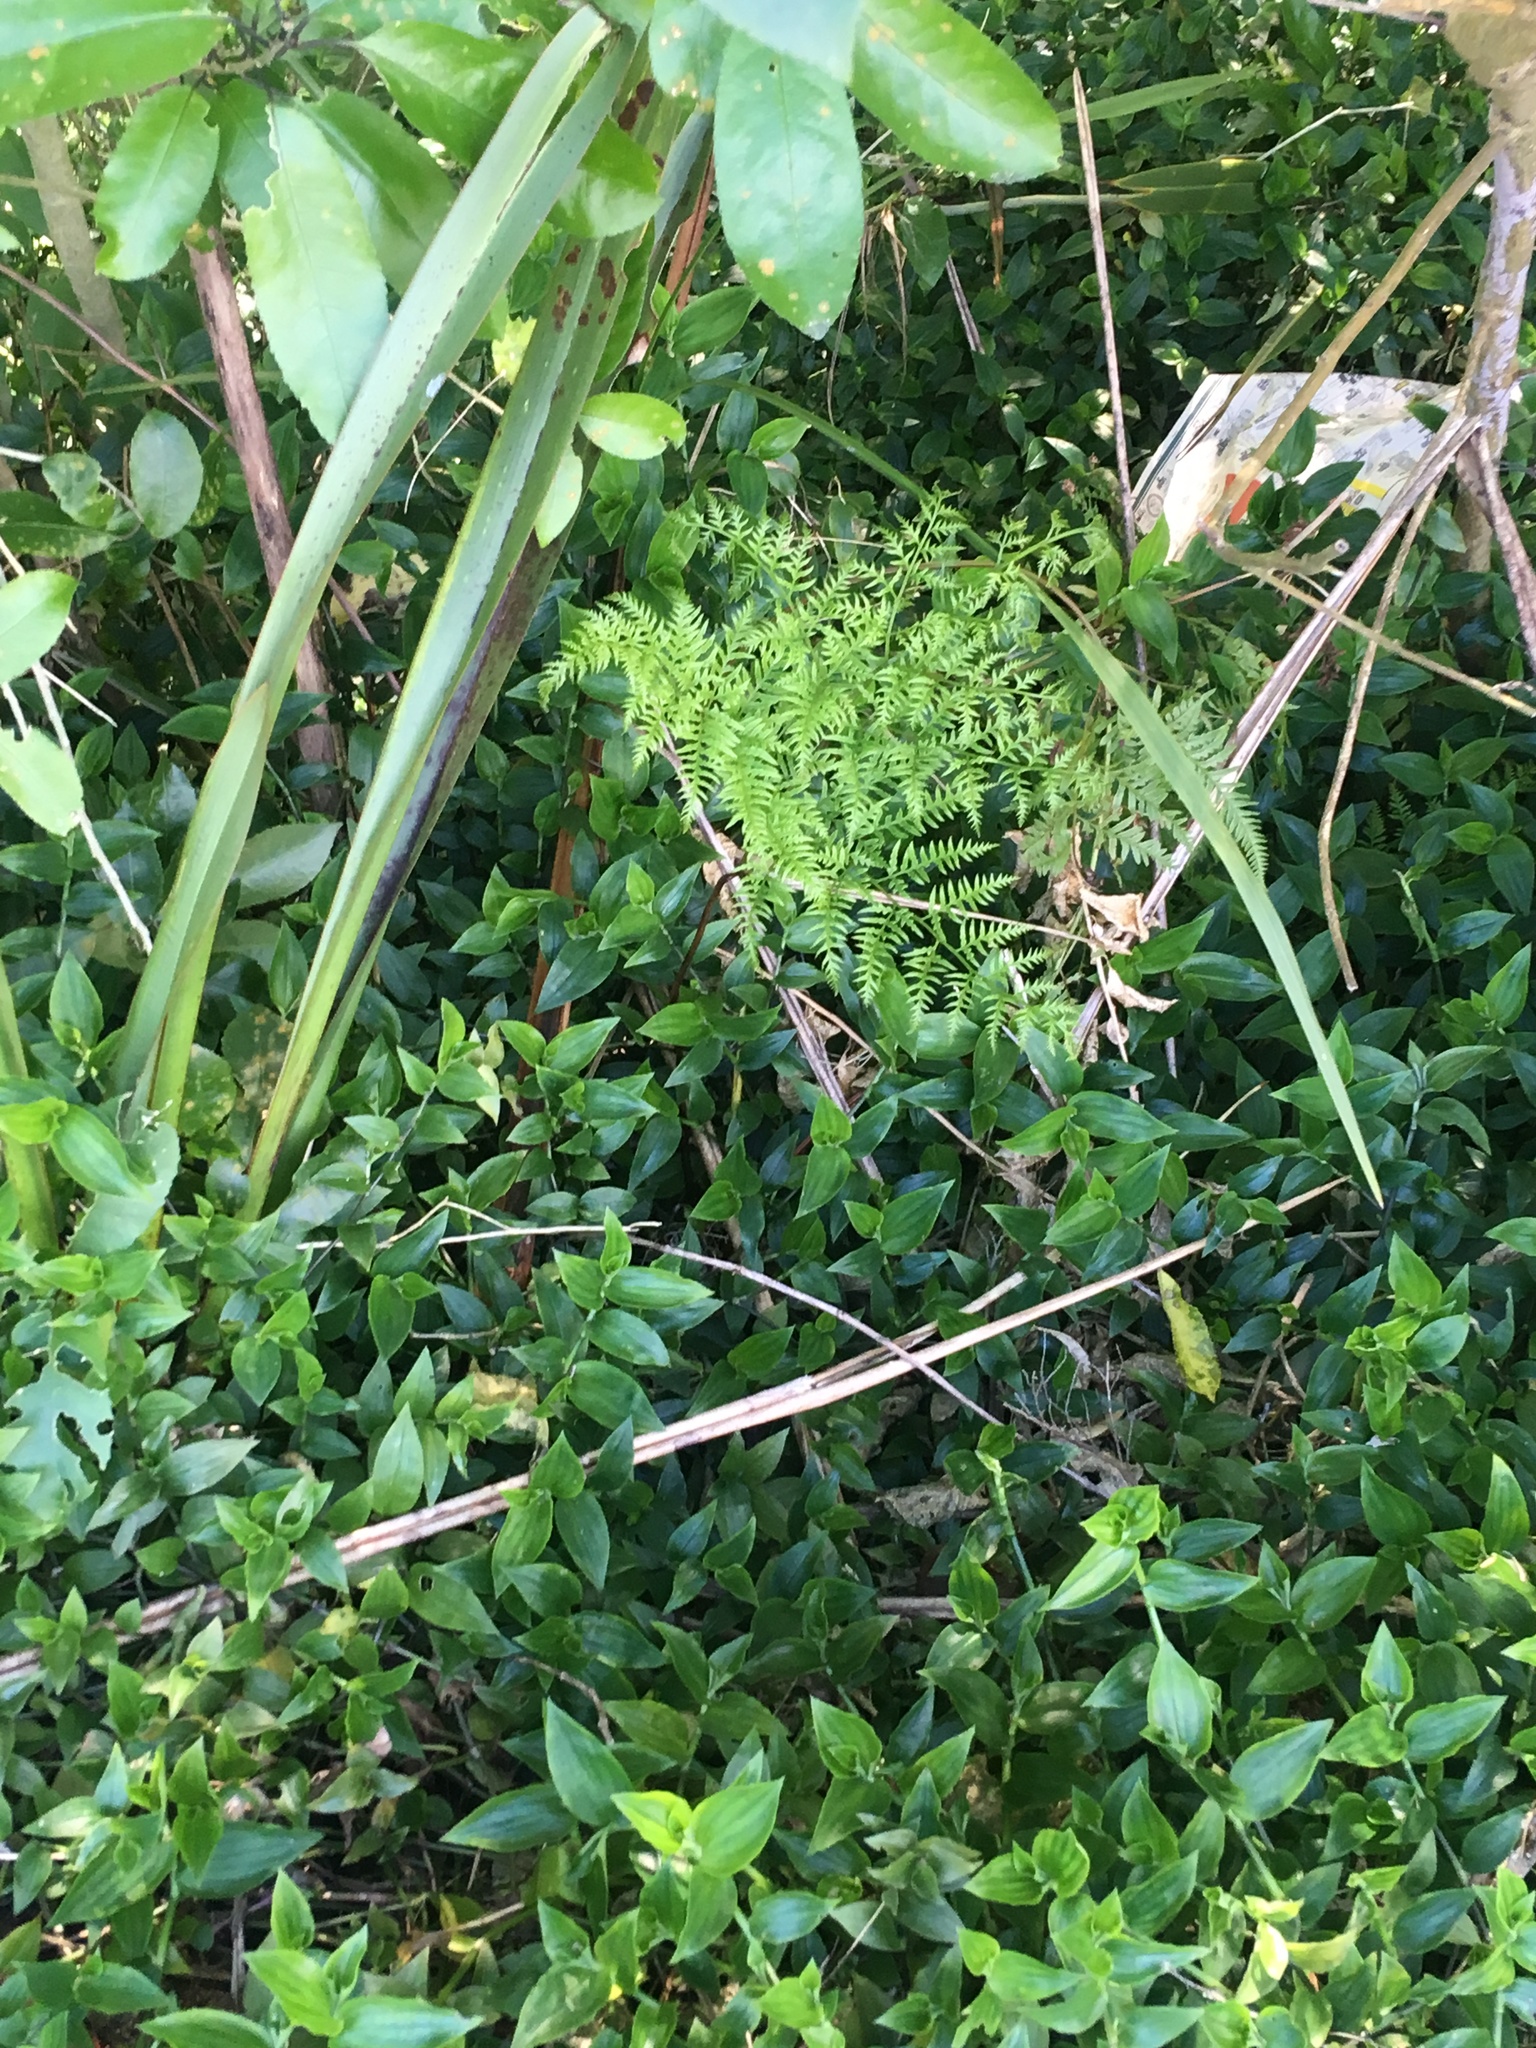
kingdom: Plantae
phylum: Tracheophyta
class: Polypodiopsida
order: Polypodiales
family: Pteridaceae
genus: Pteris
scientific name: Pteris tremula
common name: Australian brake
